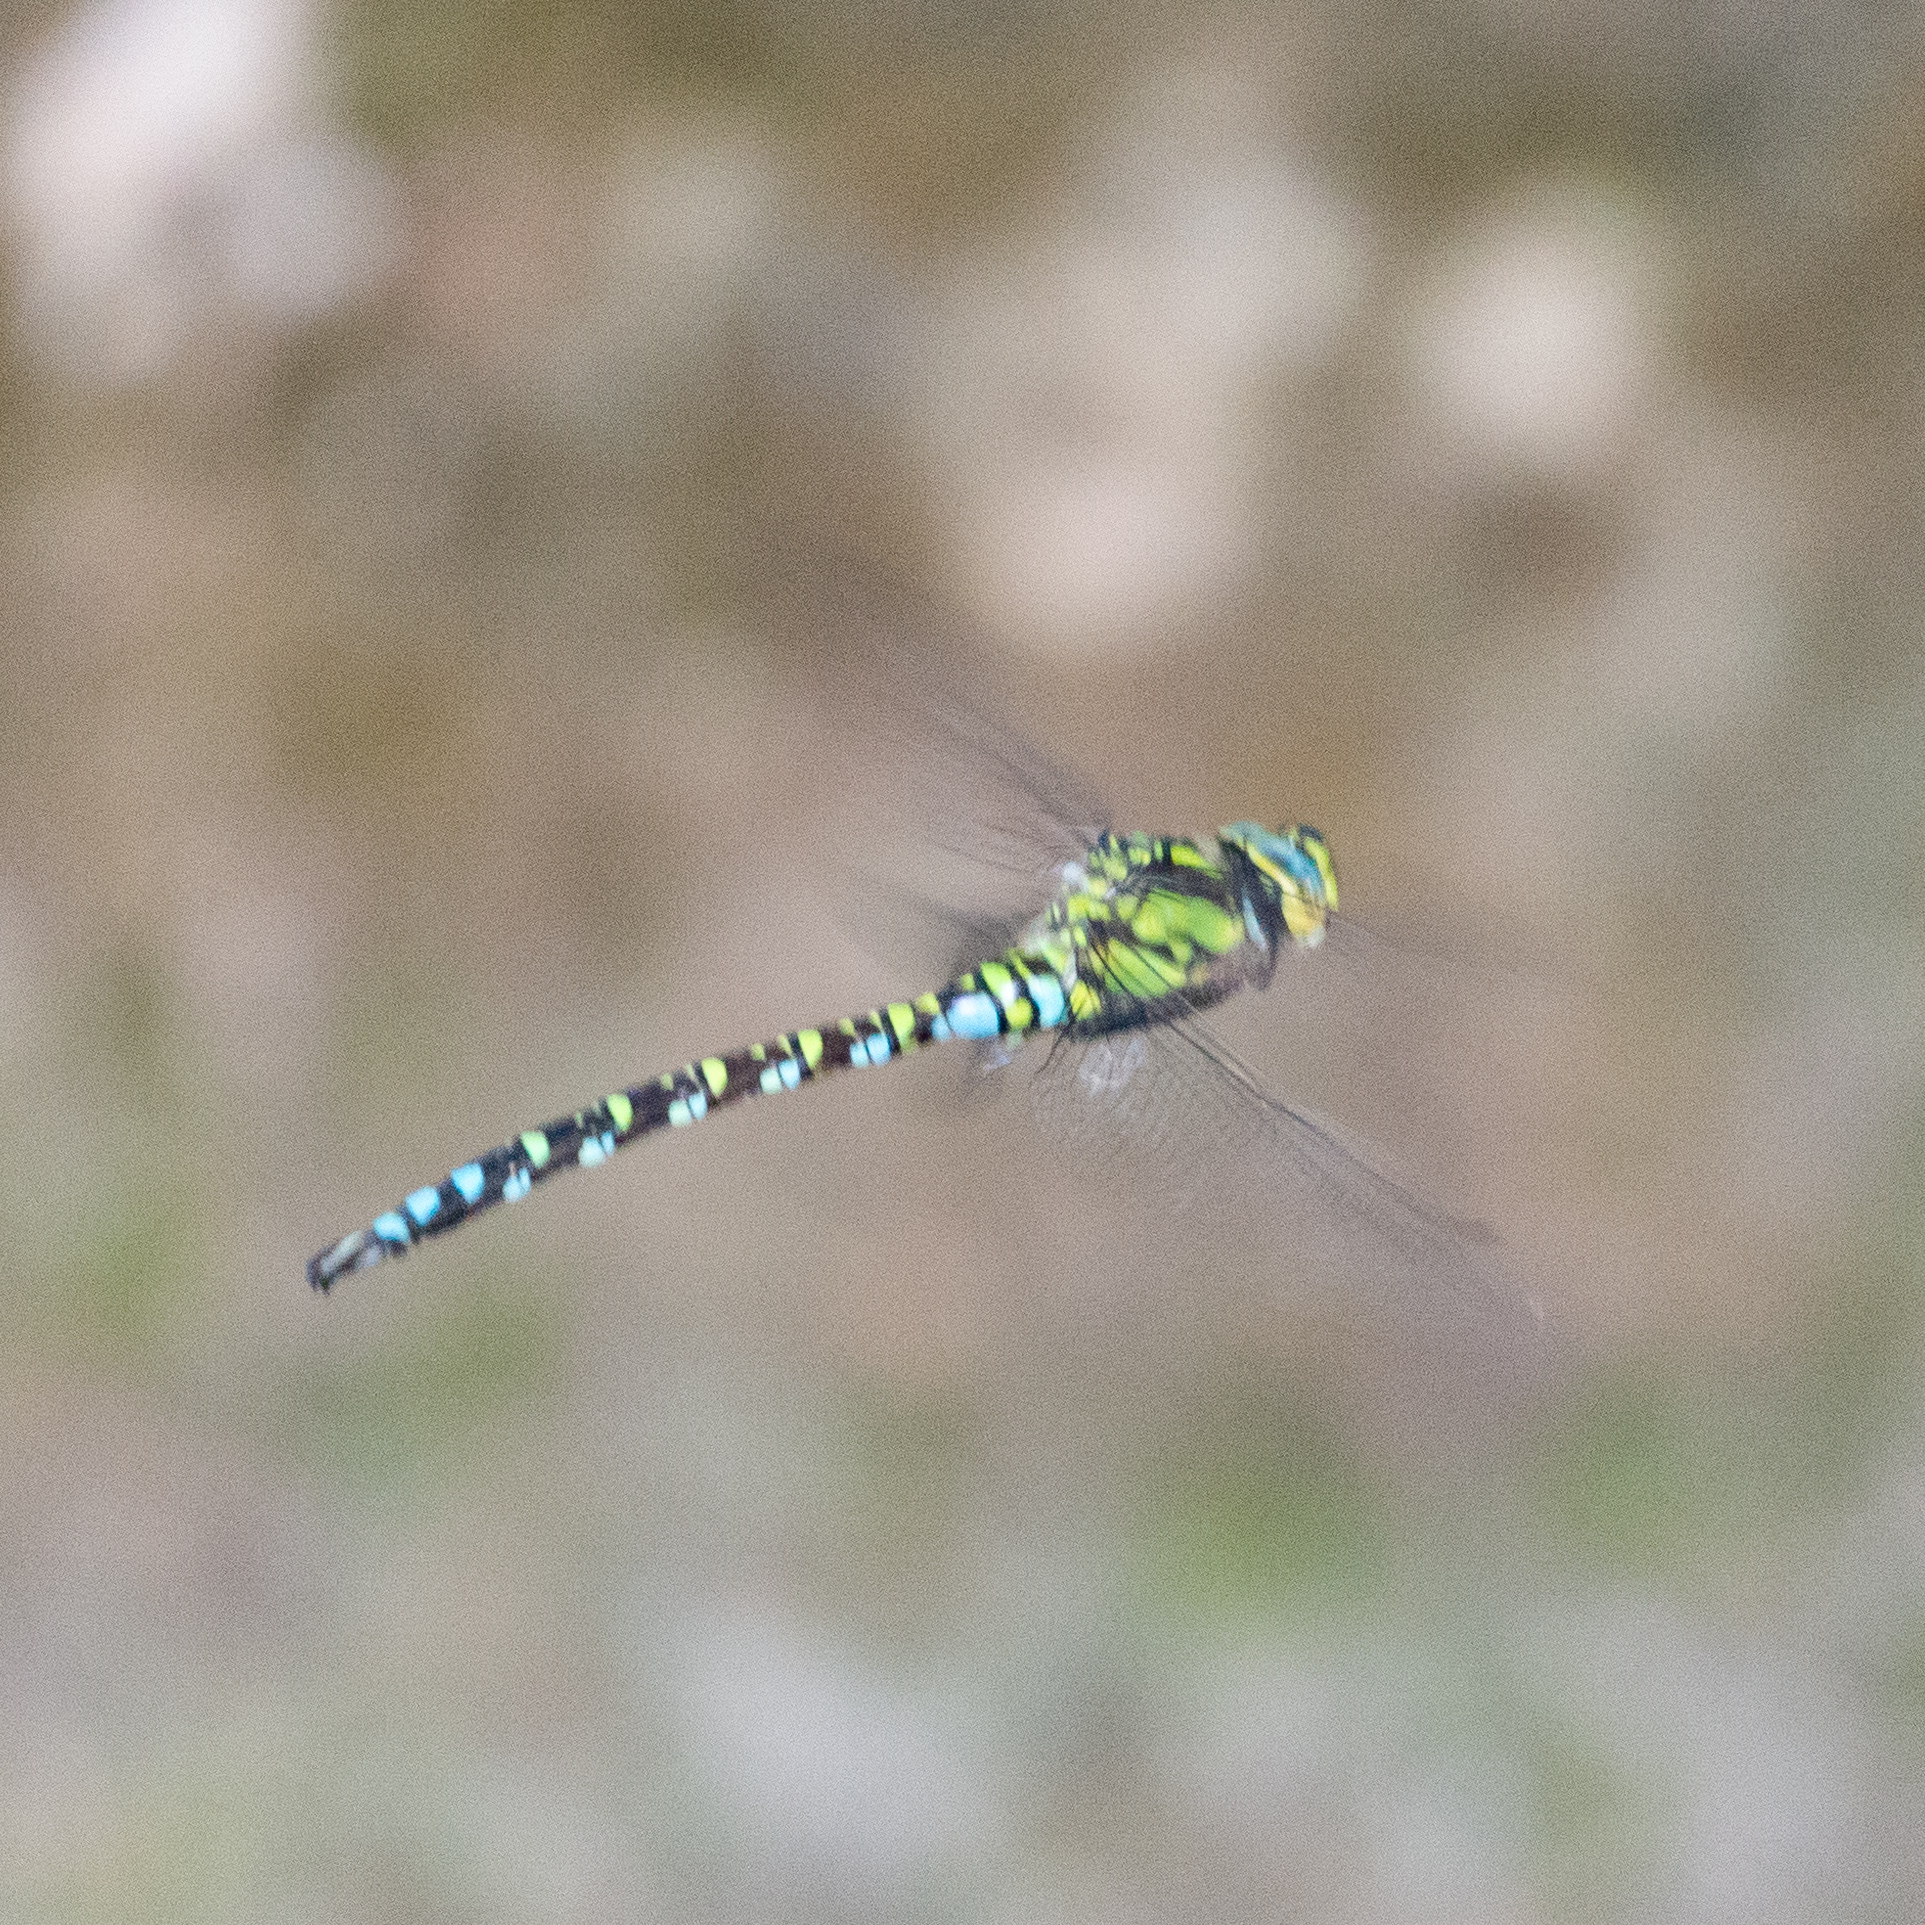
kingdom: Animalia
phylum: Arthropoda
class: Insecta
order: Odonata
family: Aeshnidae
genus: Aeshna
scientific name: Aeshna cyanea
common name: Southern hawker
